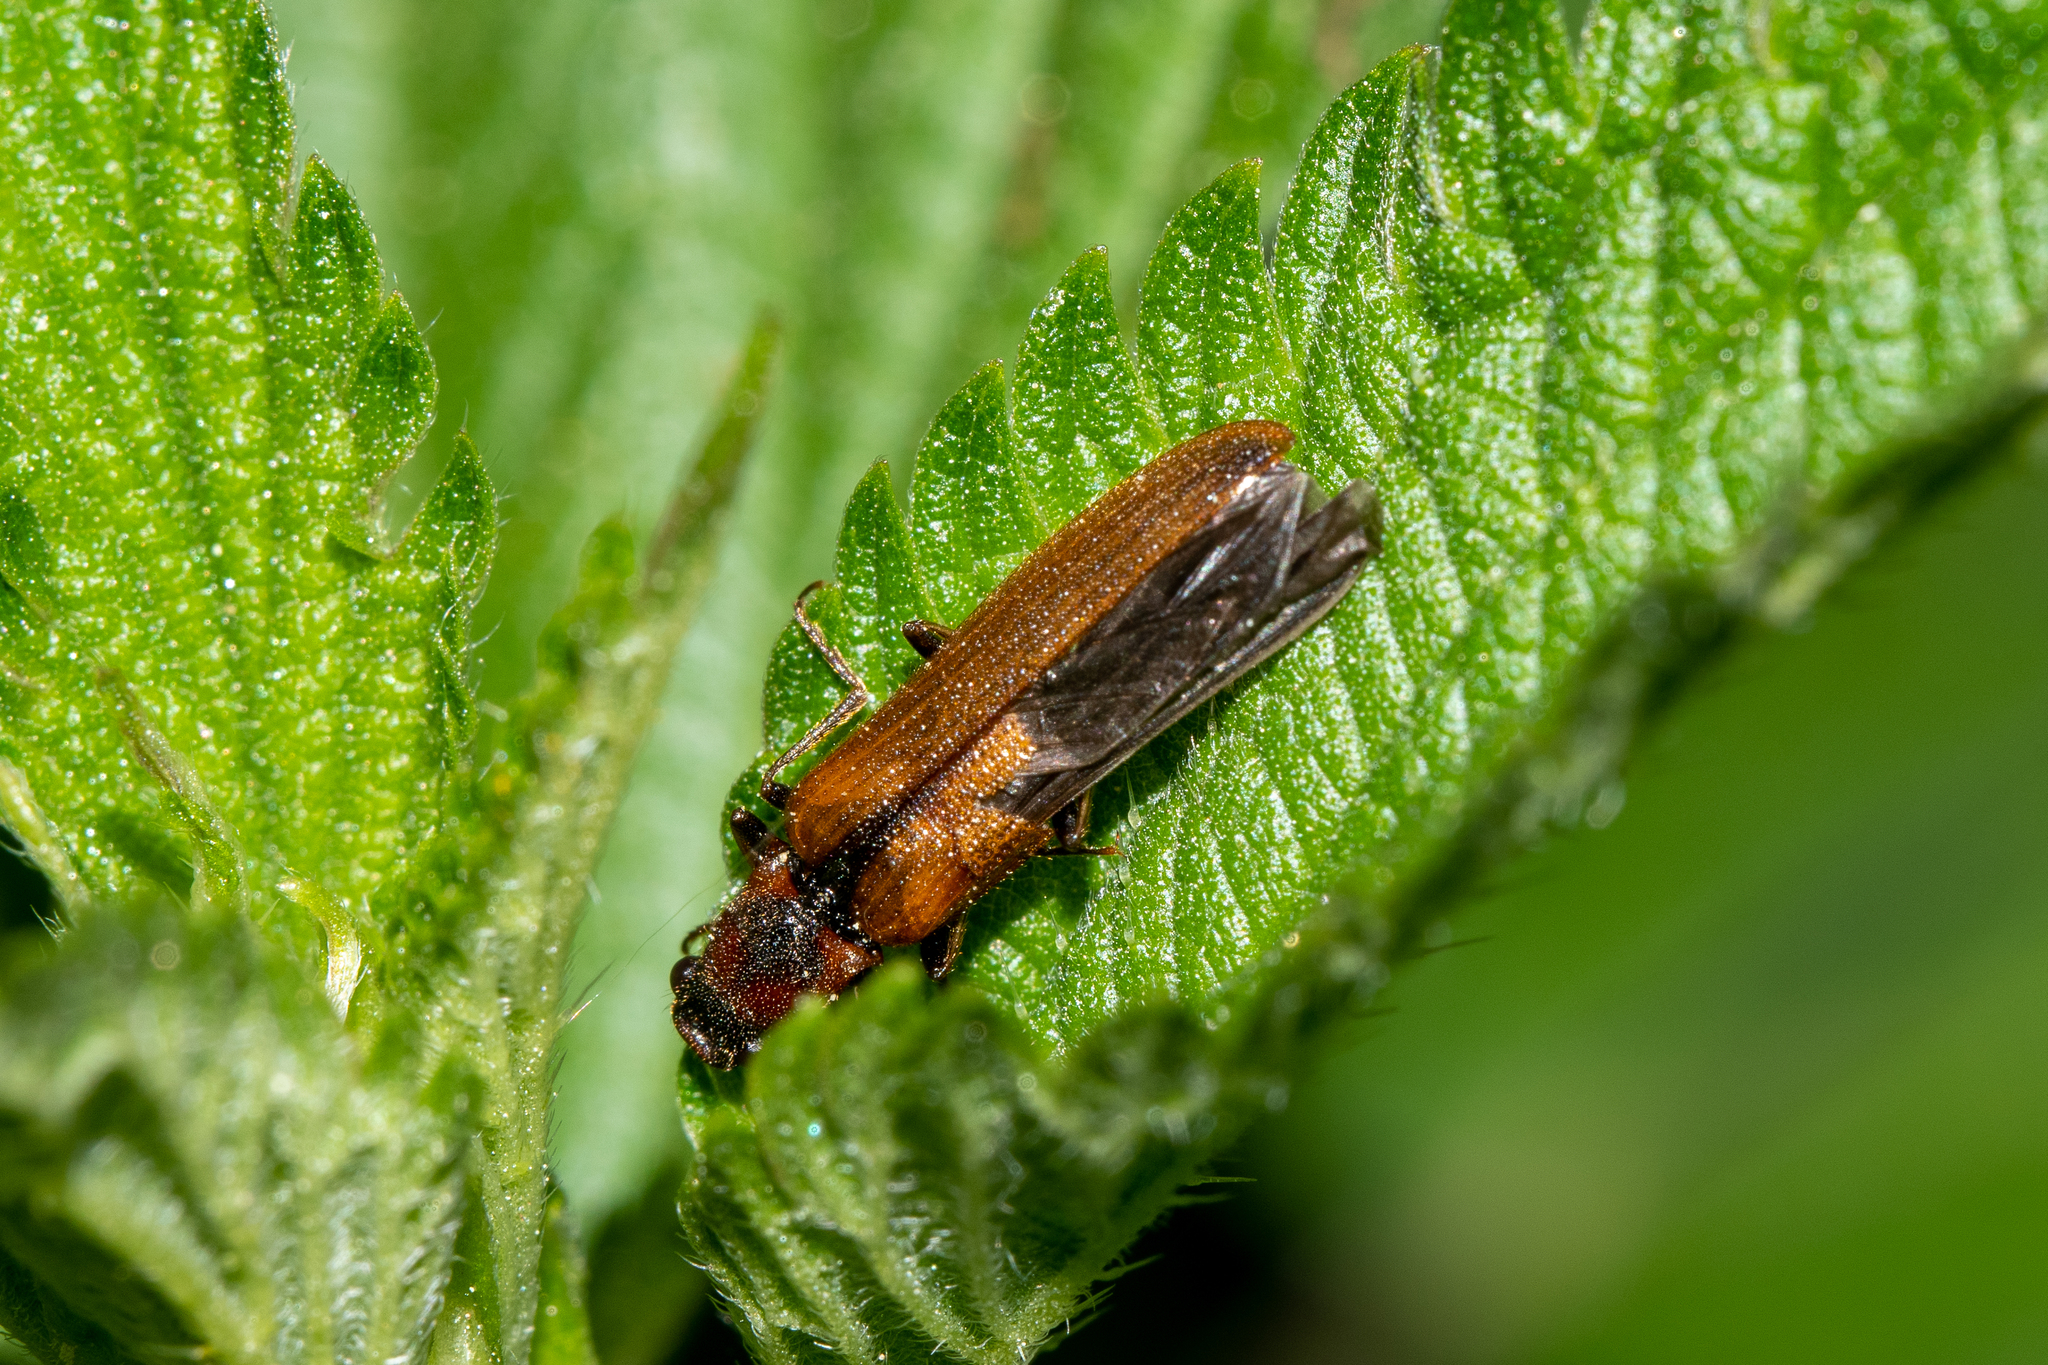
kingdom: Animalia
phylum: Arthropoda
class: Insecta
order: Coleoptera
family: Elateridae
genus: Denticollis
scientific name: Denticollis linearis
